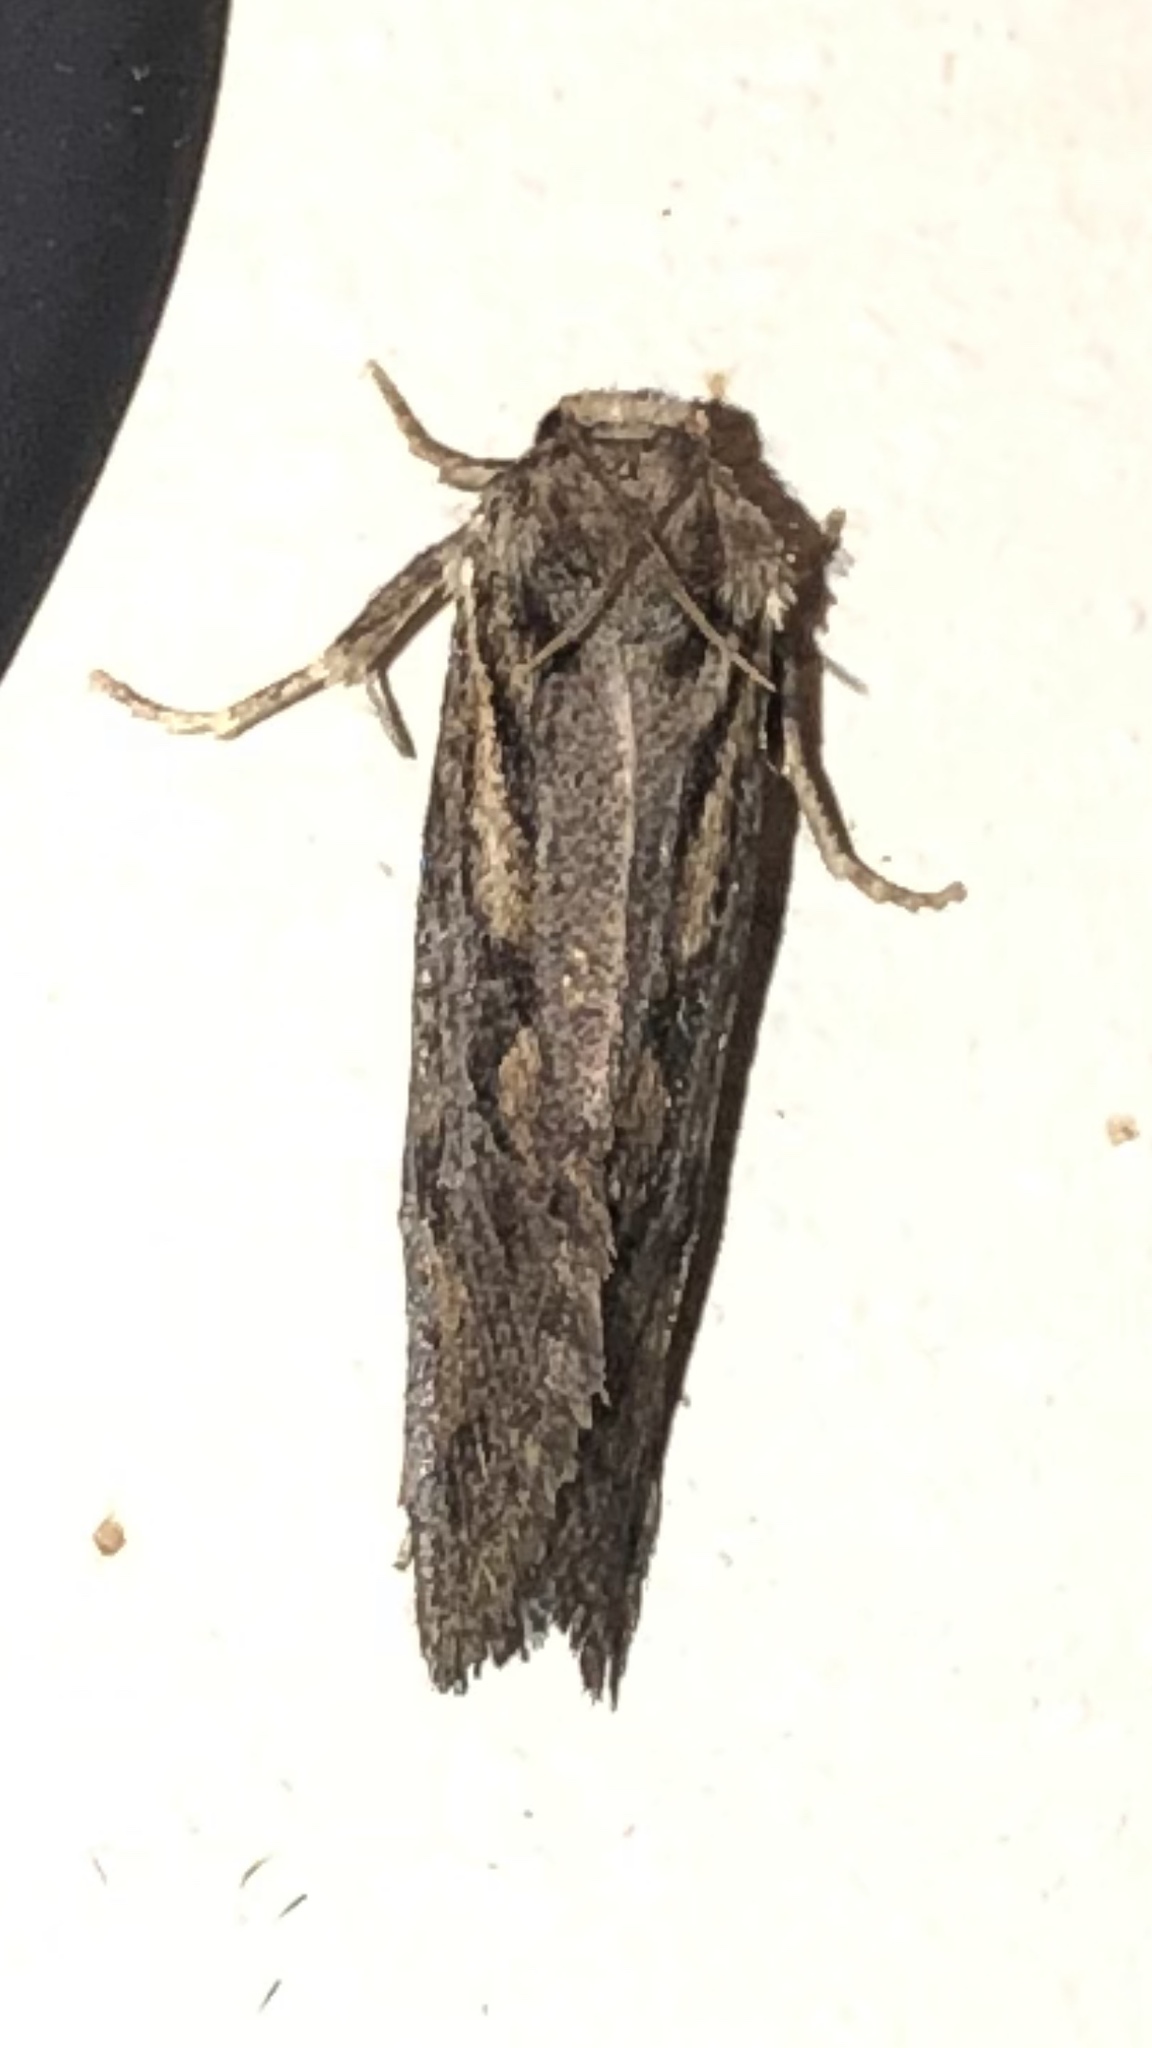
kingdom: Animalia
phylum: Arthropoda
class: Insecta
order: Lepidoptera
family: Tineidae
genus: Acrolophus
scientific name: Acrolophus popeanella
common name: Clemens' grass tubeworm moth
